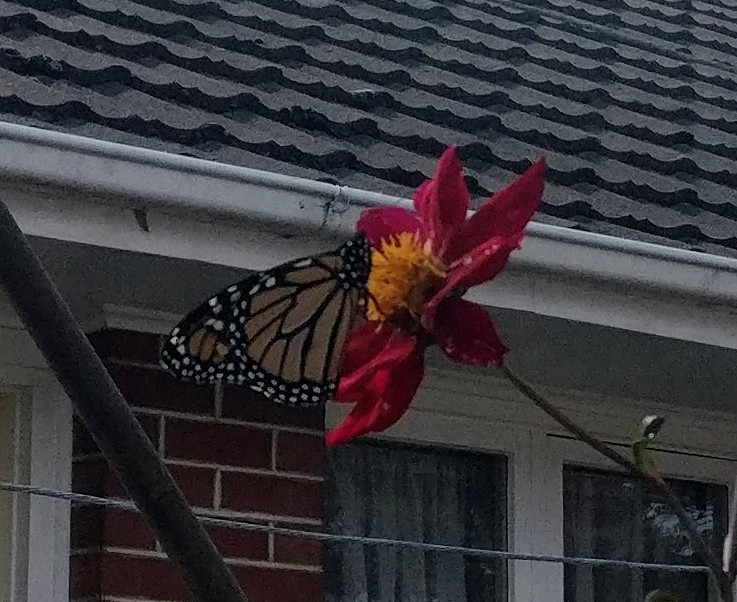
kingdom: Animalia
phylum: Arthropoda
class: Insecta
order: Lepidoptera
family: Nymphalidae
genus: Danaus
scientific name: Danaus plexippus
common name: Monarch
